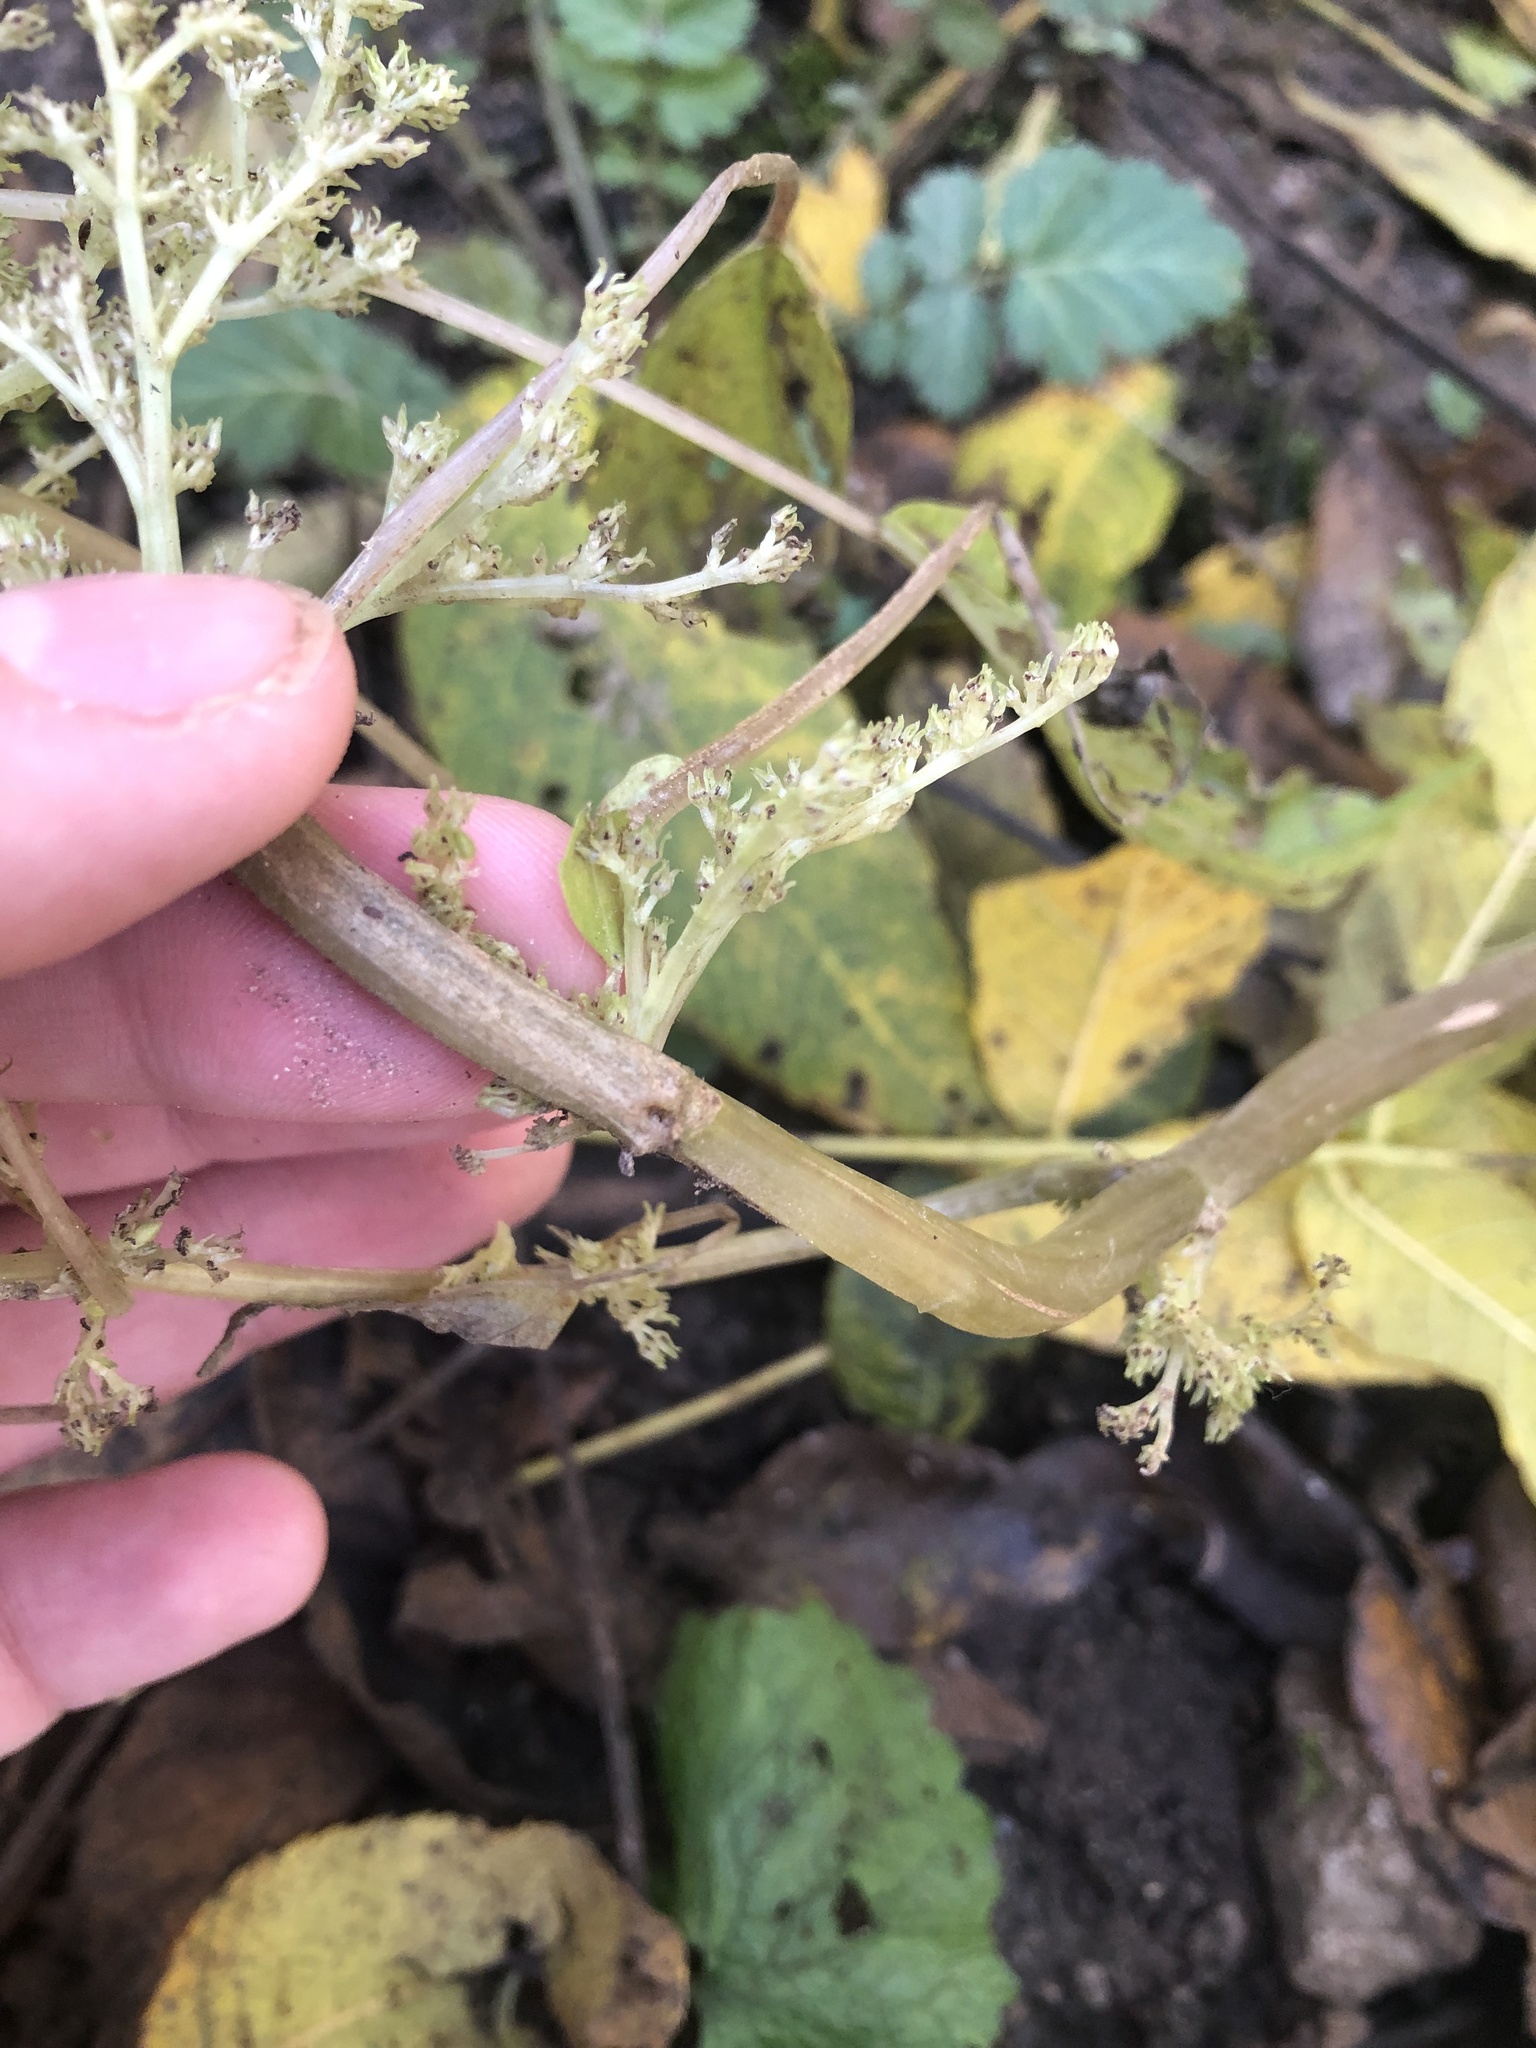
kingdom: Plantae
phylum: Tracheophyta
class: Magnoliopsida
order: Rosales
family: Urticaceae
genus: Pilea
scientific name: Pilea pumila
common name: Clearweed
